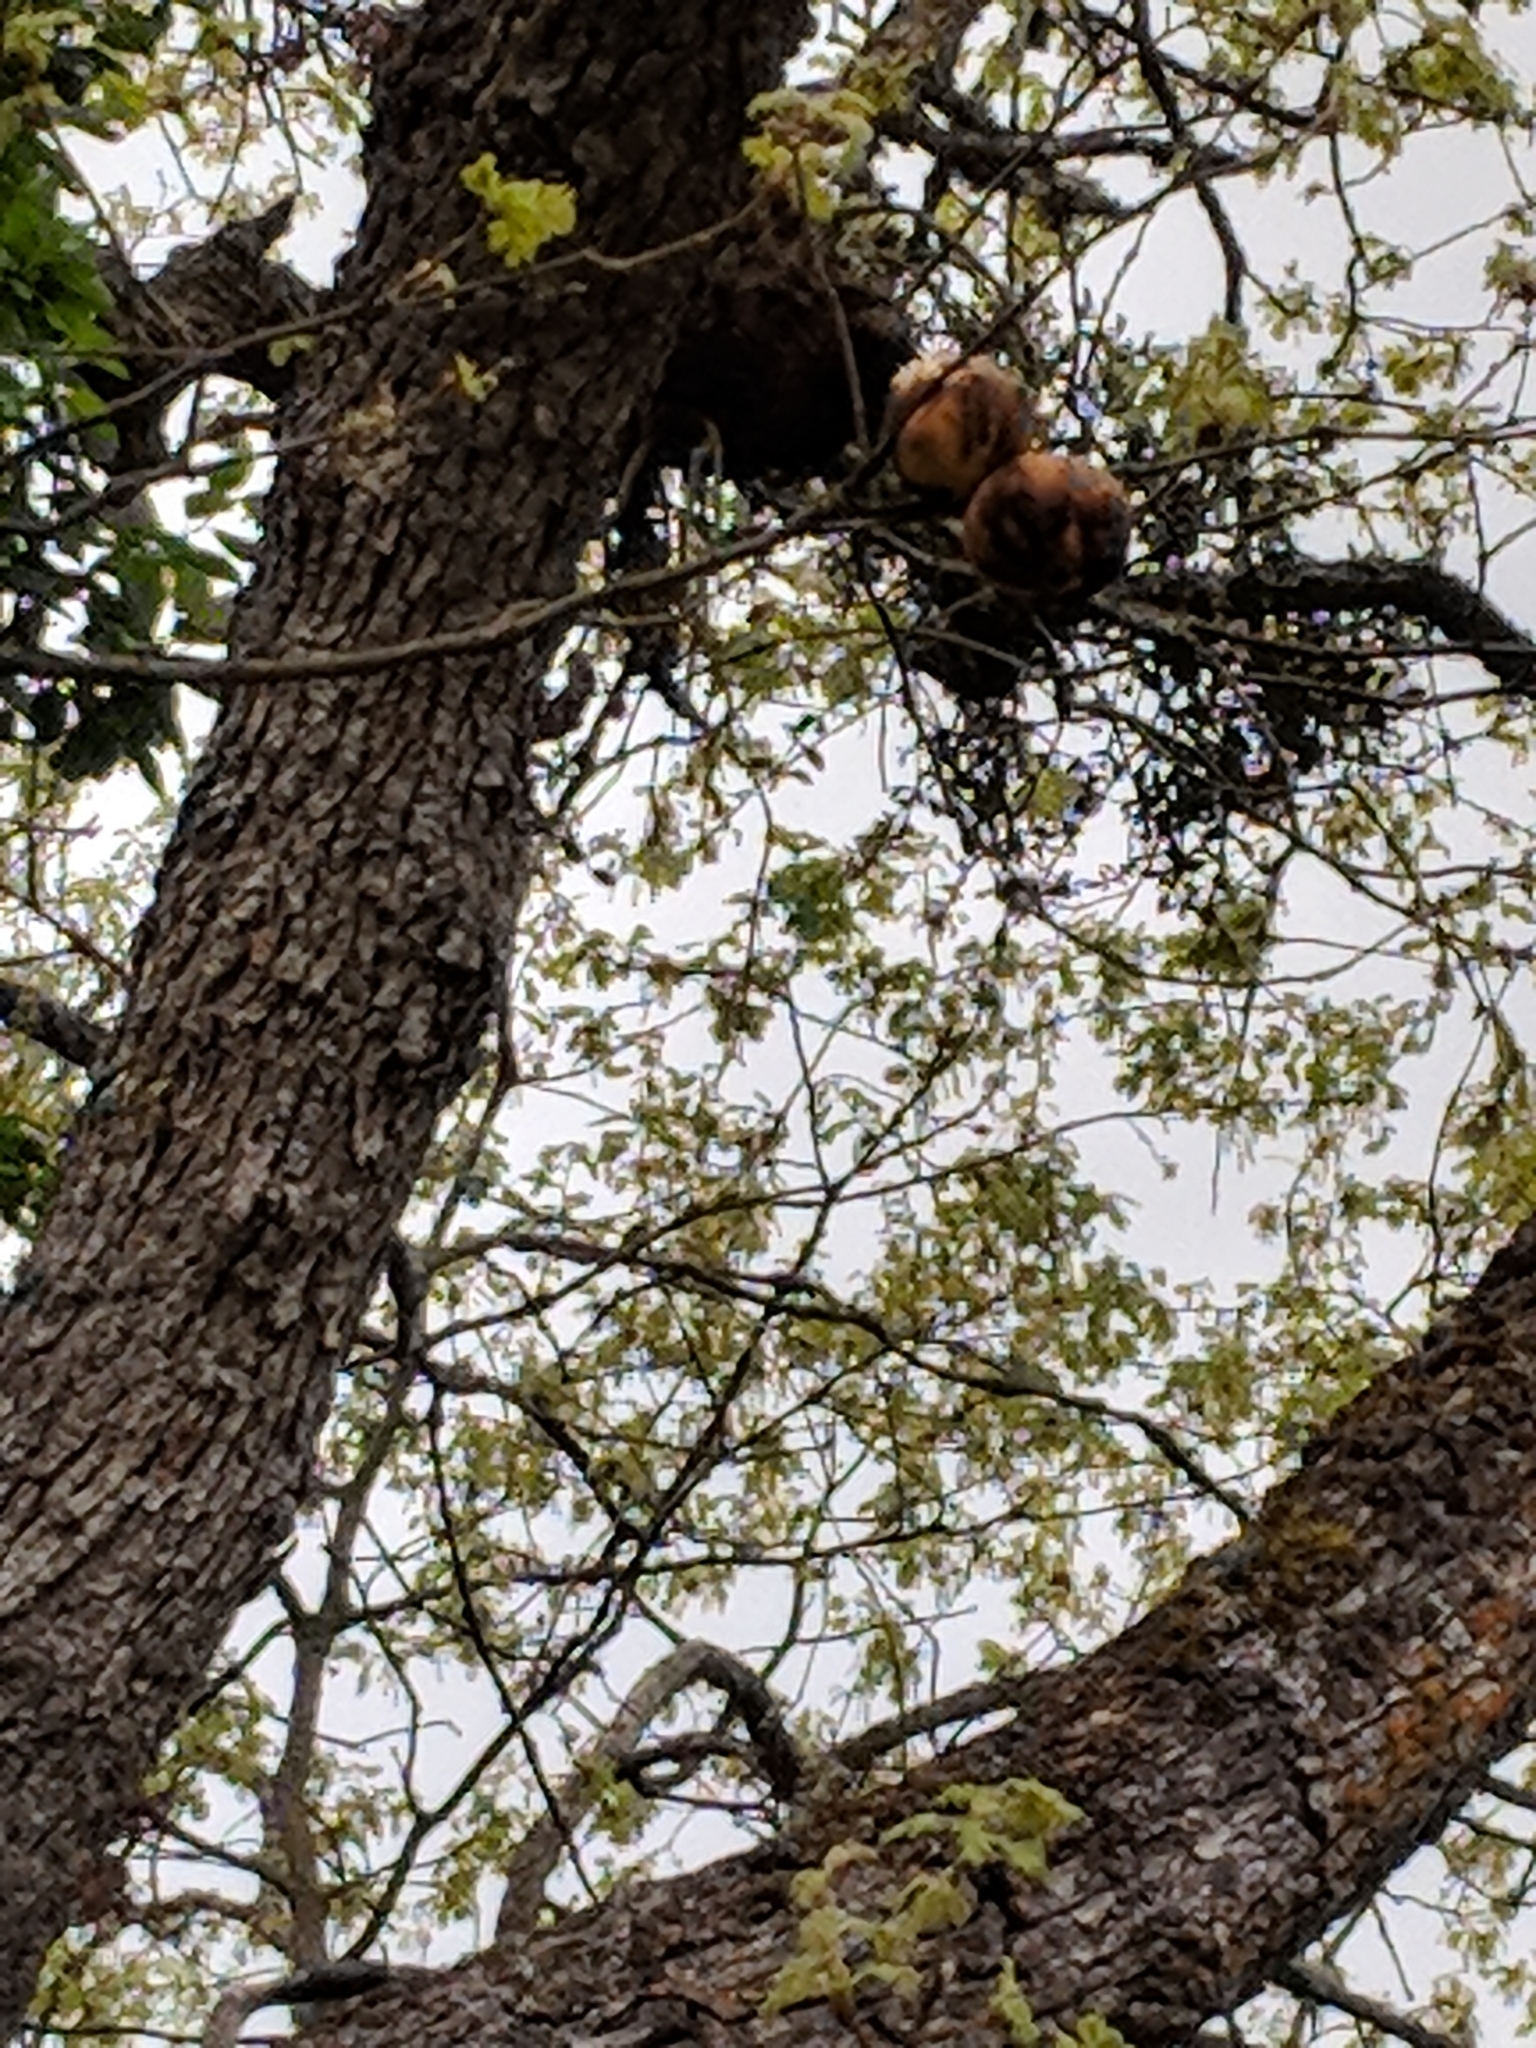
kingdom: Plantae
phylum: Tracheophyta
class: Magnoliopsida
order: Fagales
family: Fagaceae
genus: Quercus
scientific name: Quercus garryana
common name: Garry oak
